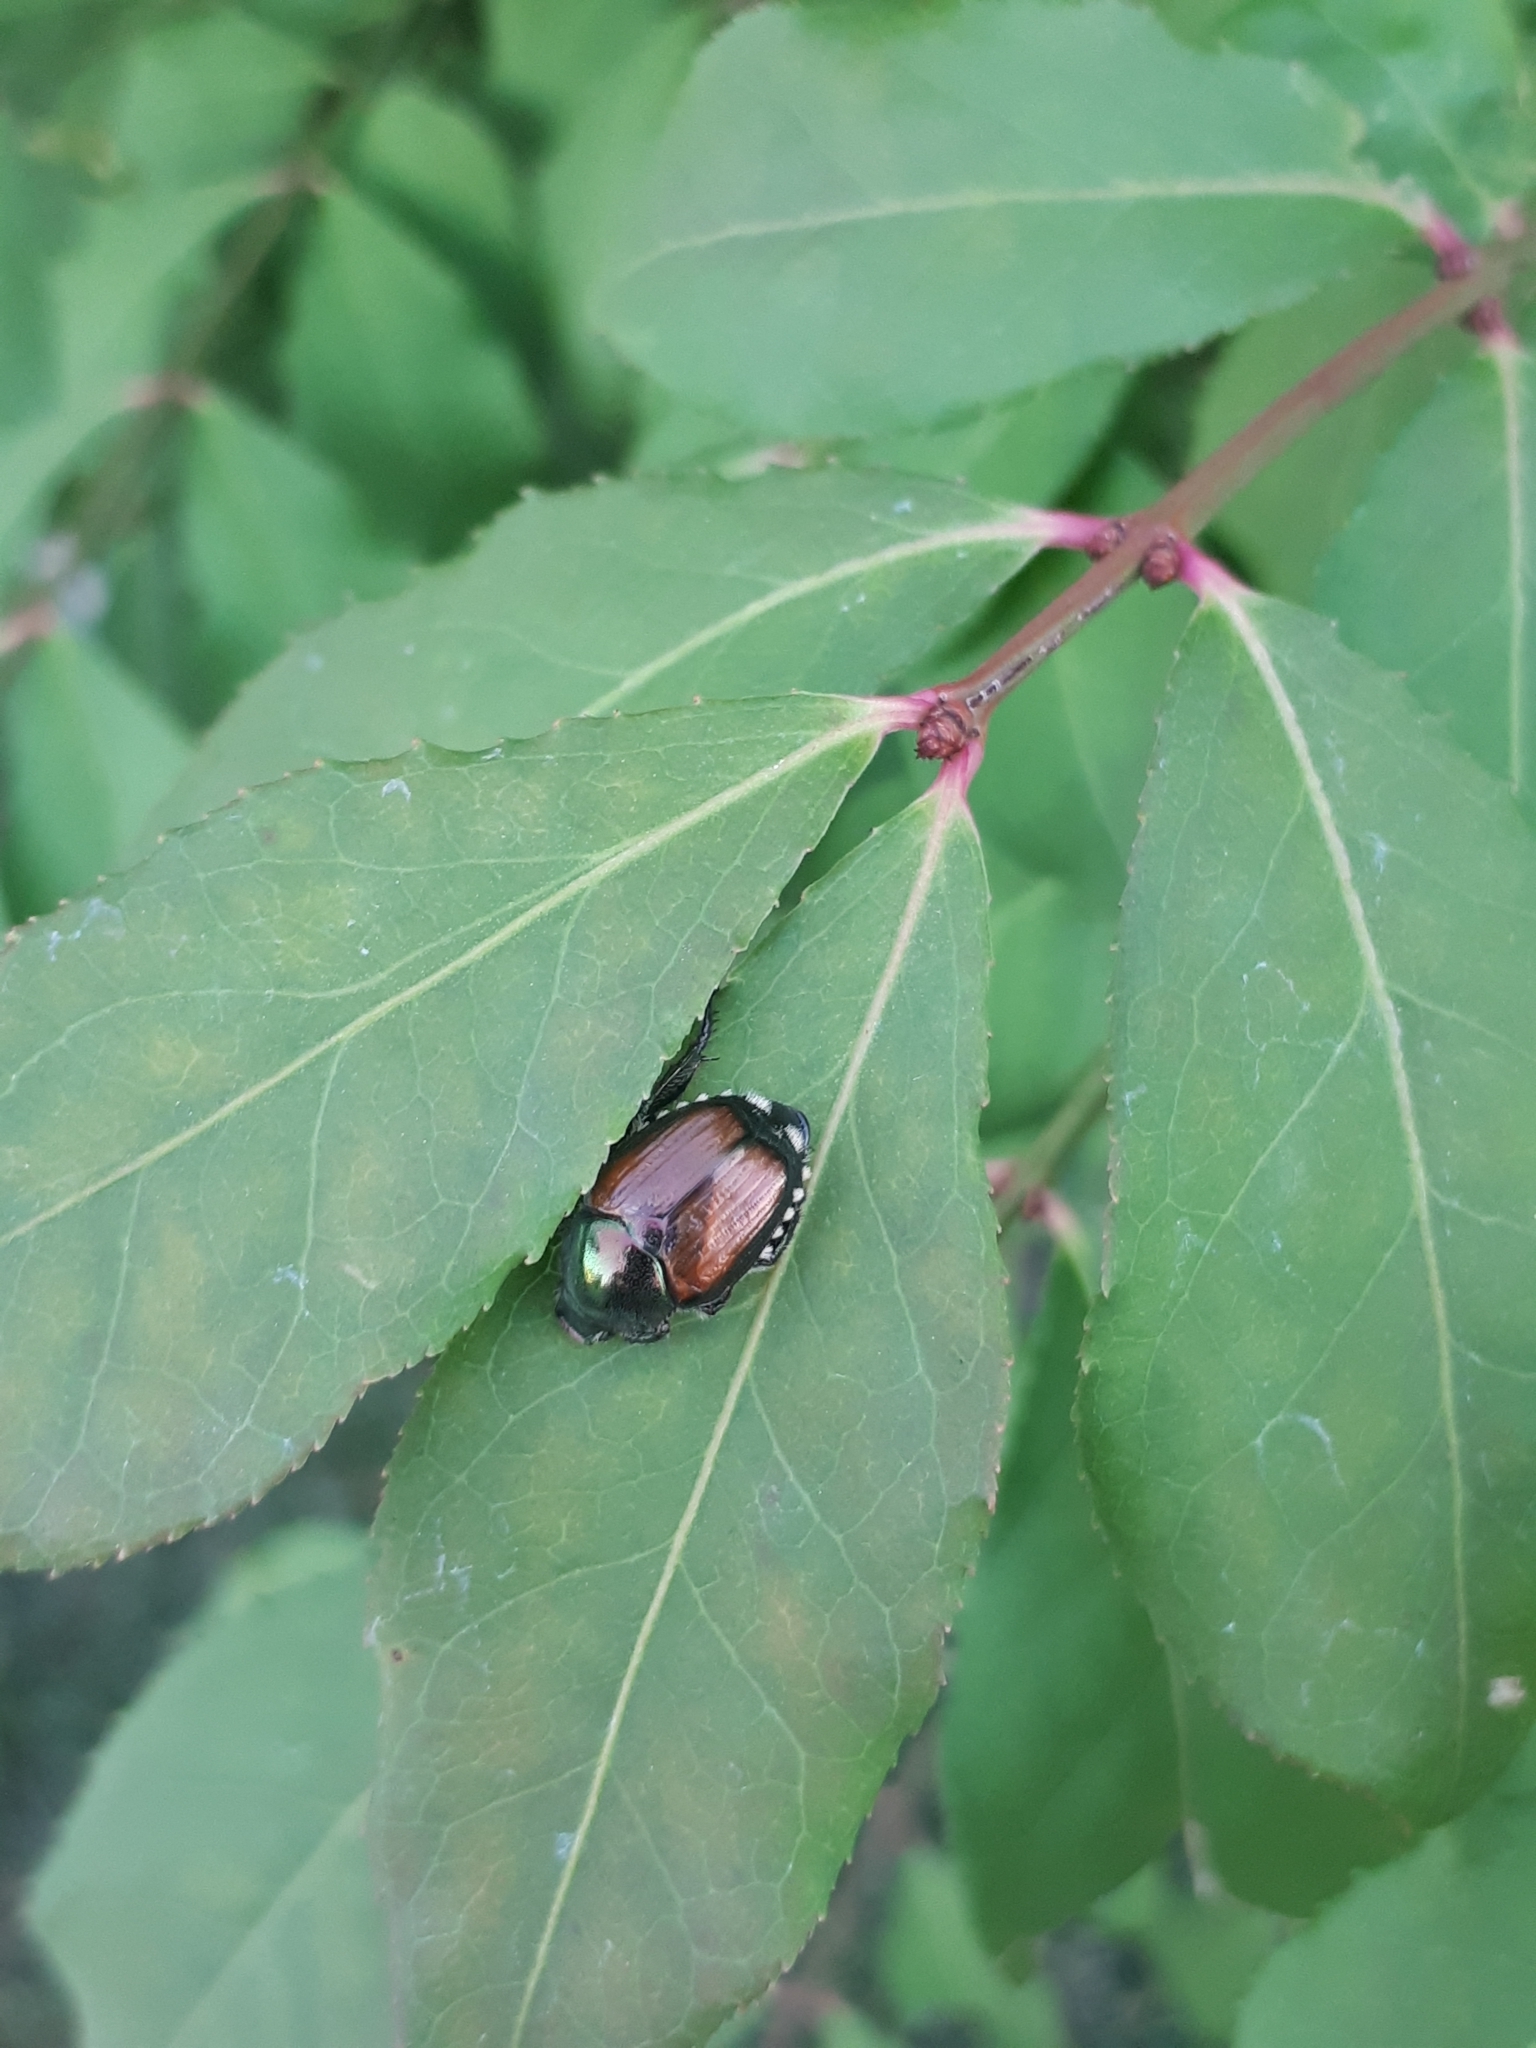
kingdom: Animalia
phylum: Arthropoda
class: Insecta
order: Coleoptera
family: Scarabaeidae
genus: Popillia
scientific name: Popillia japonica
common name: Japanese beetle
